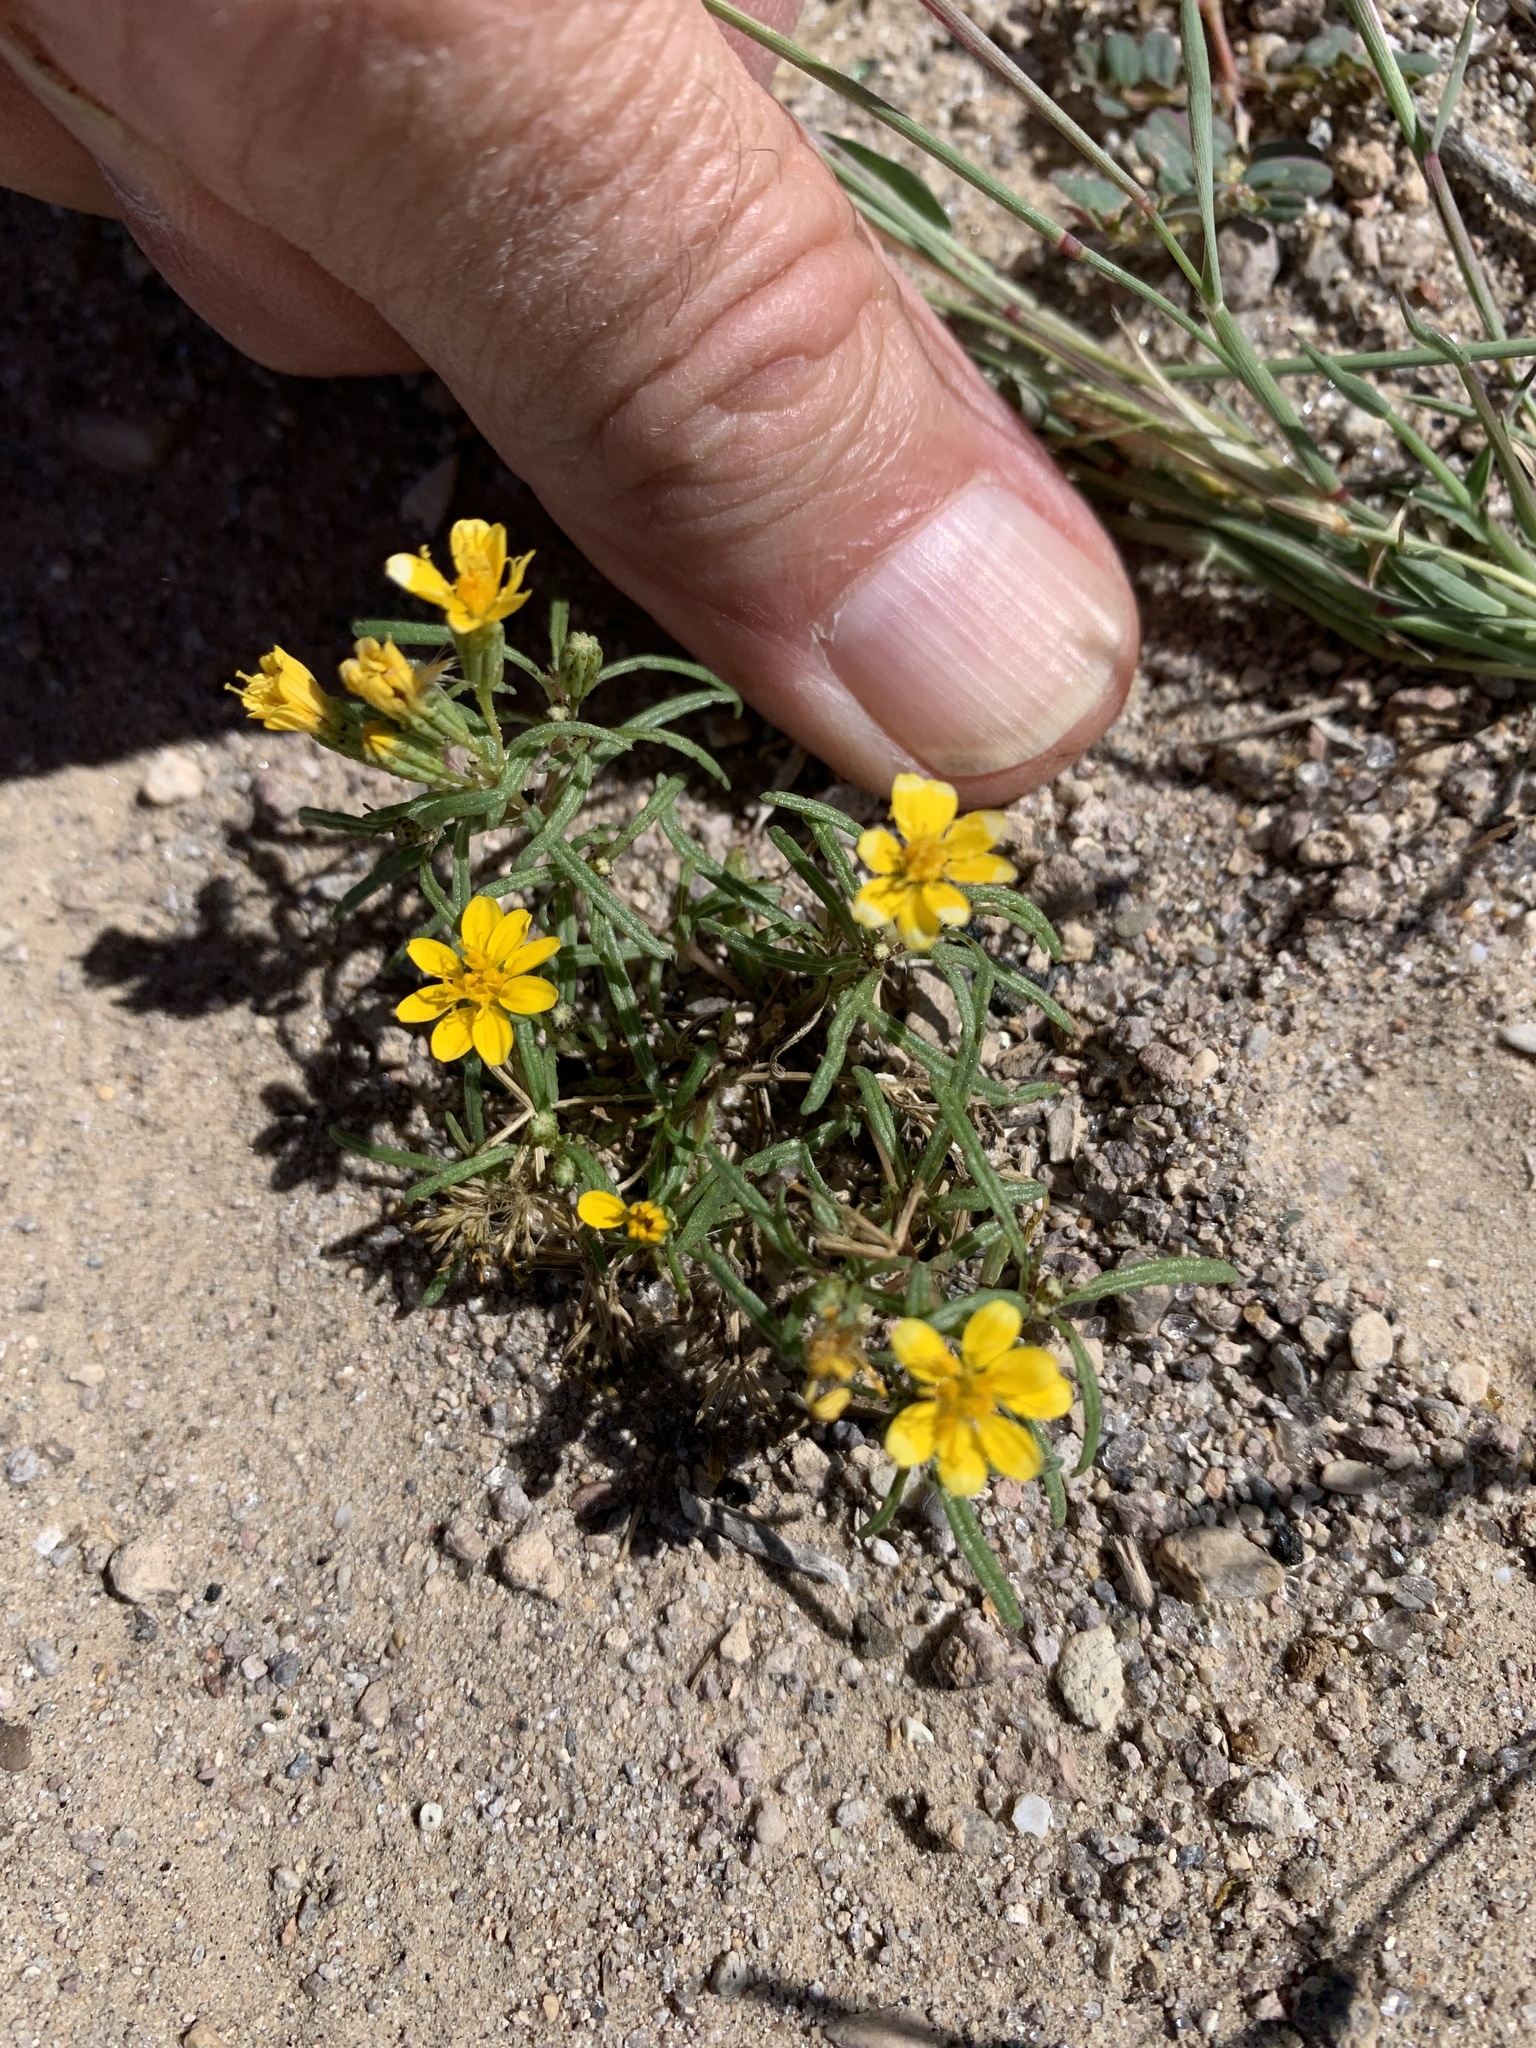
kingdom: Plantae
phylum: Tracheophyta
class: Magnoliopsida
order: Asterales
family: Asteraceae
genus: Pectis
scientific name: Pectis papposa
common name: Many-bristle chinchweed
